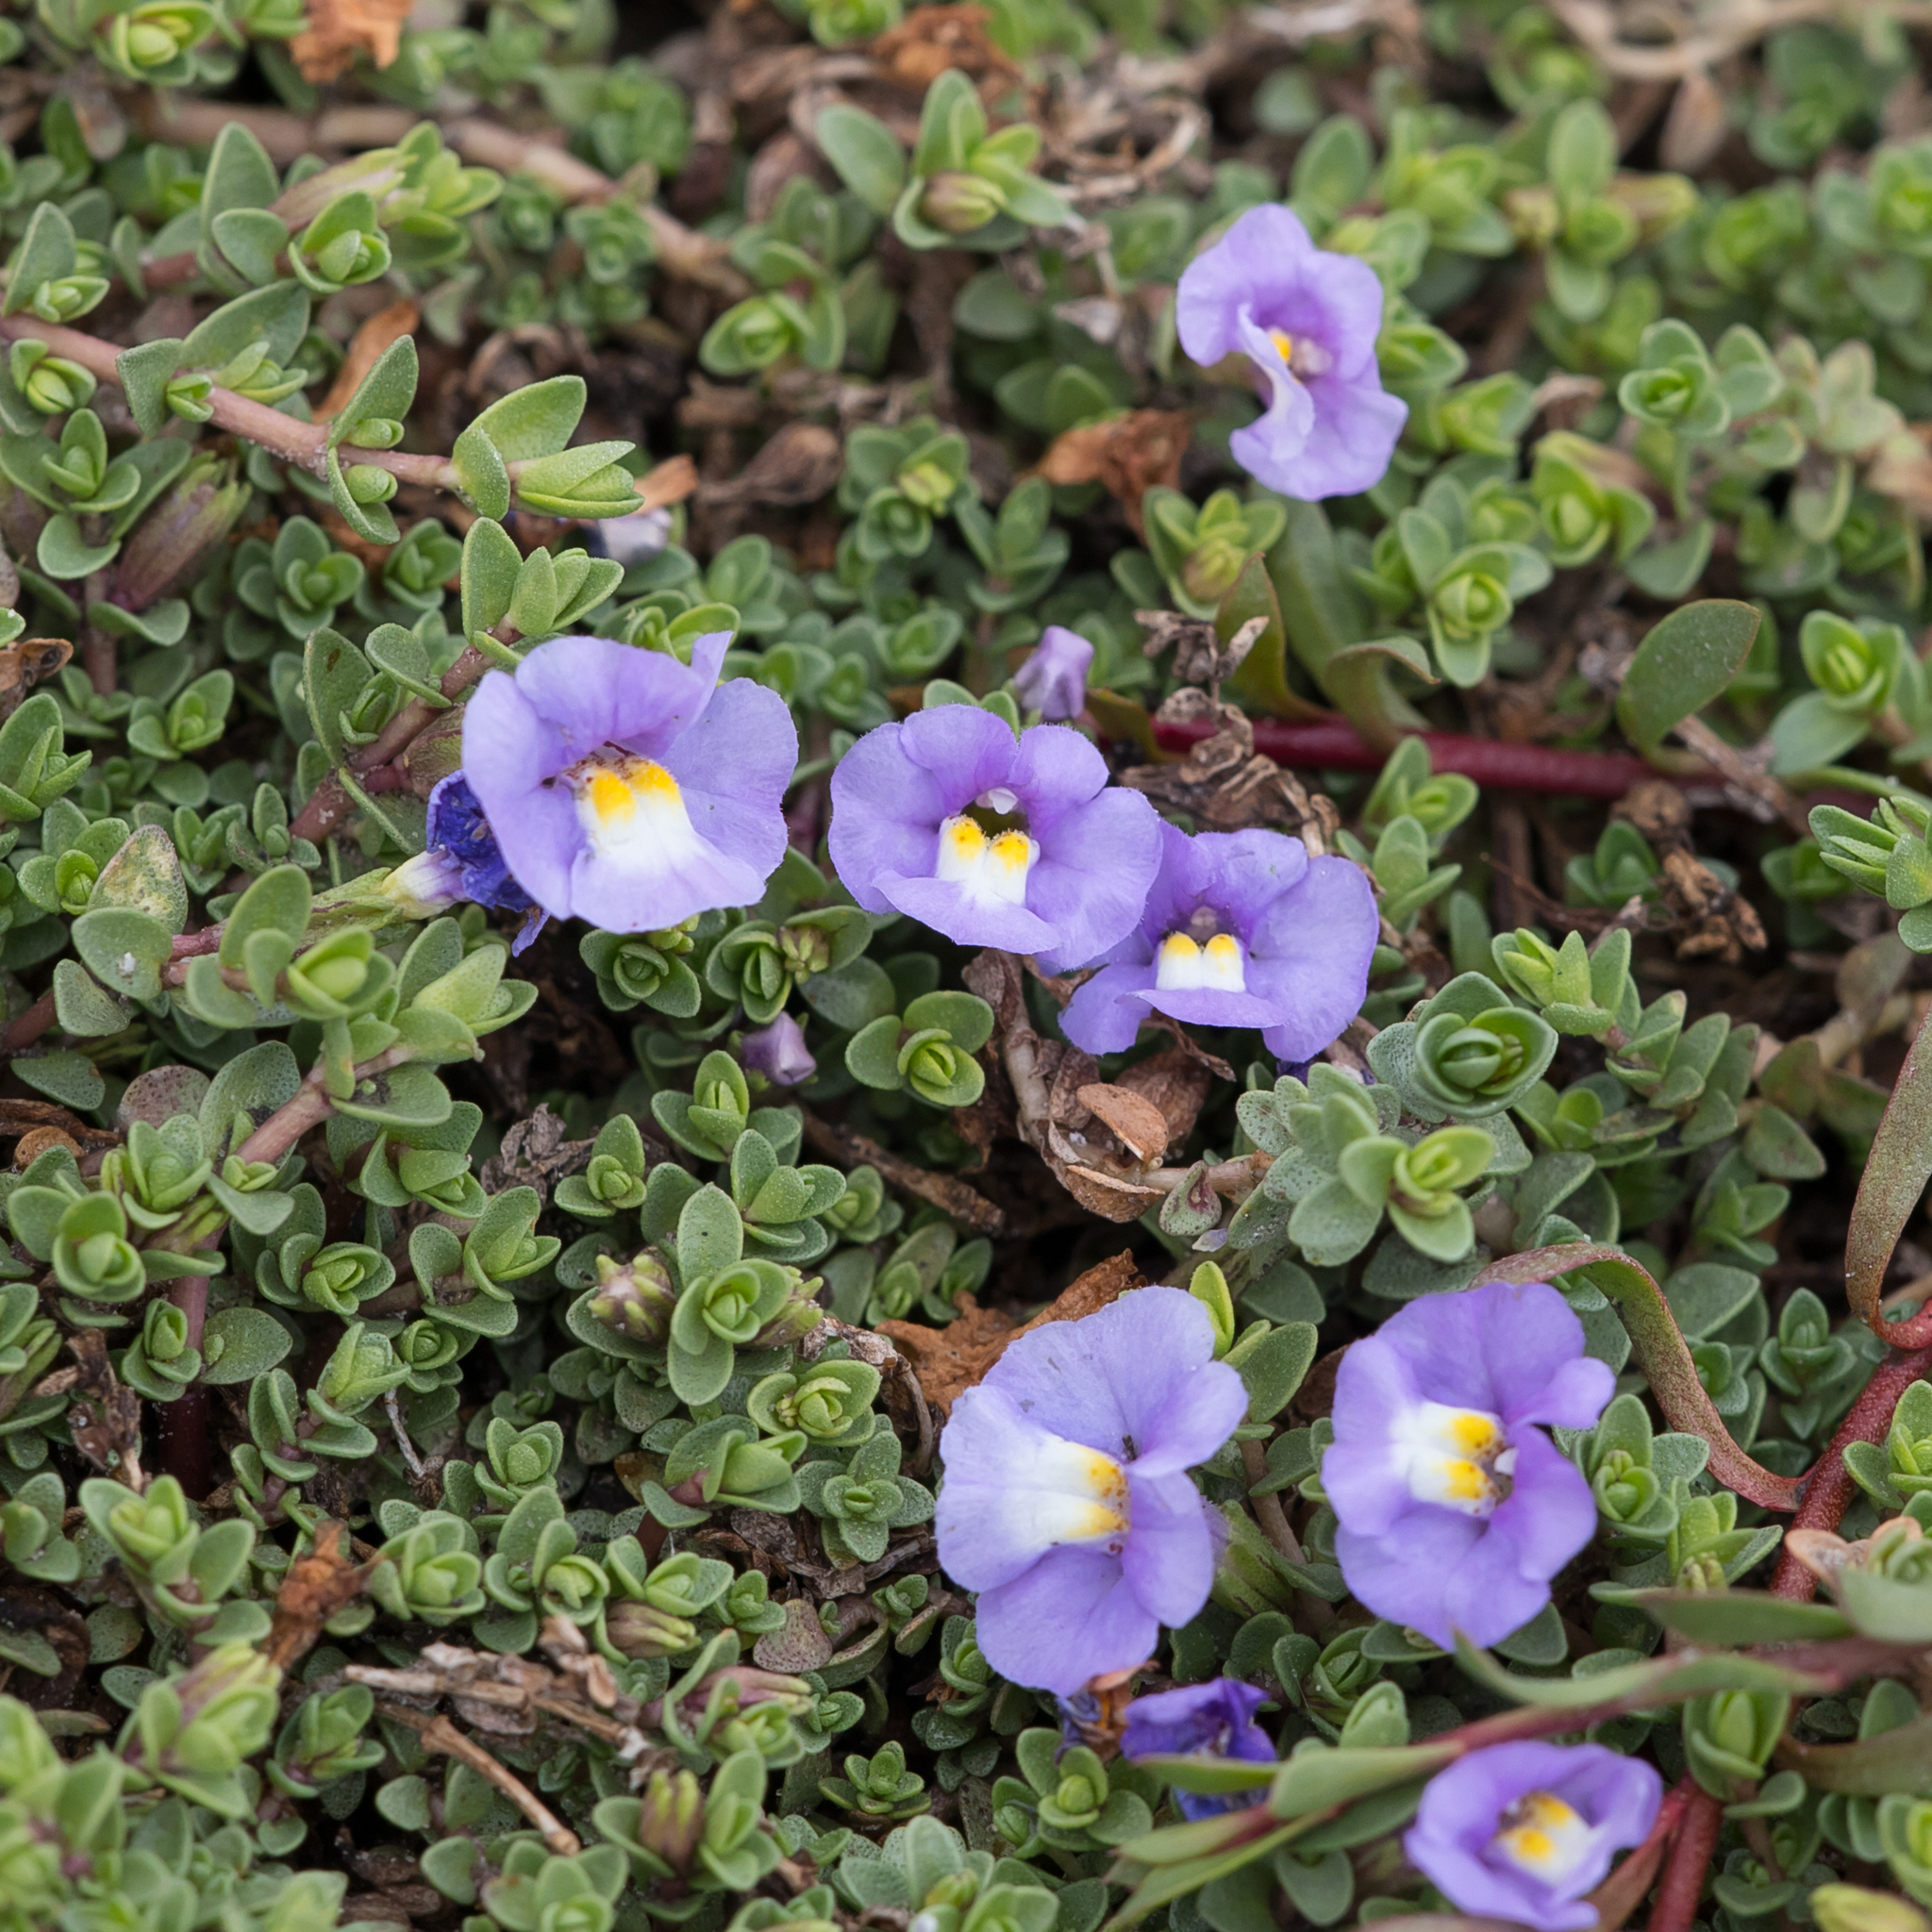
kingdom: Plantae
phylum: Tracheophyta
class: Magnoliopsida
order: Lamiales
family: Phrymaceae
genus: Thyridia
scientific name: Thyridia repens
